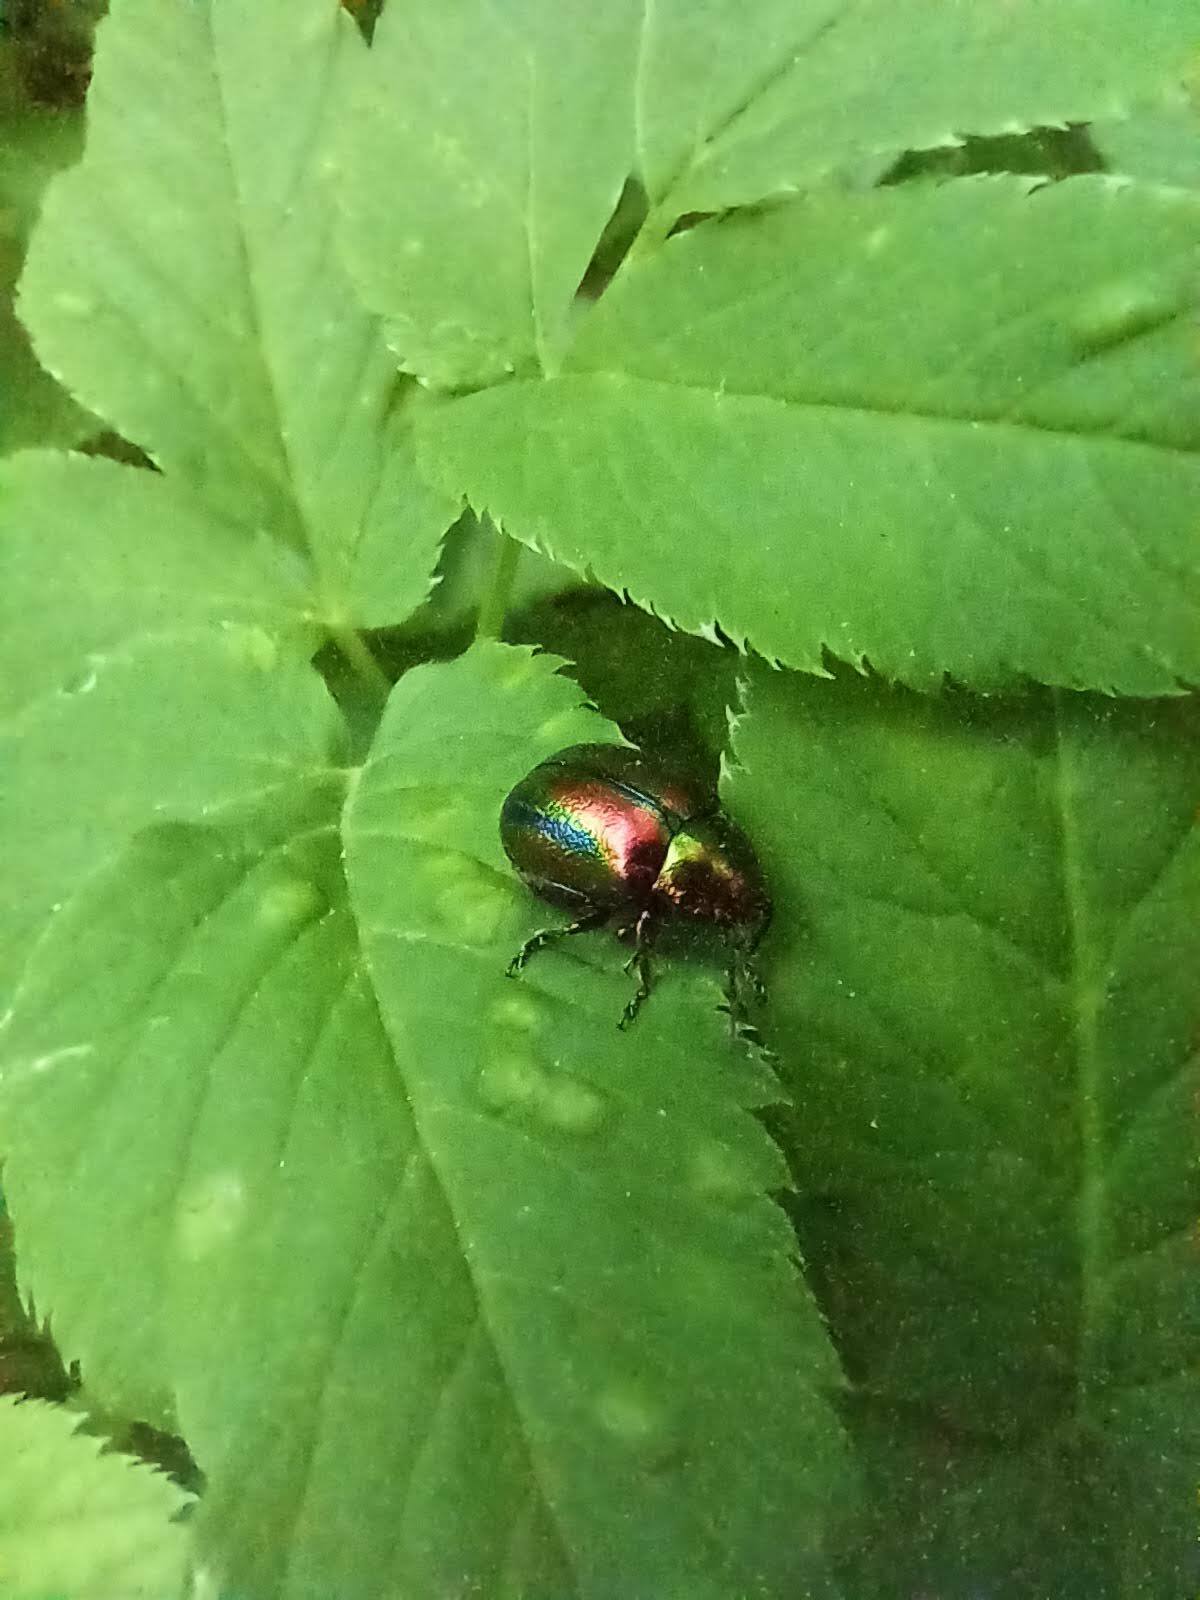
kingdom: Animalia
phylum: Arthropoda
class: Insecta
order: Coleoptera
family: Chrysomelidae
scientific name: Chrysomelidae
